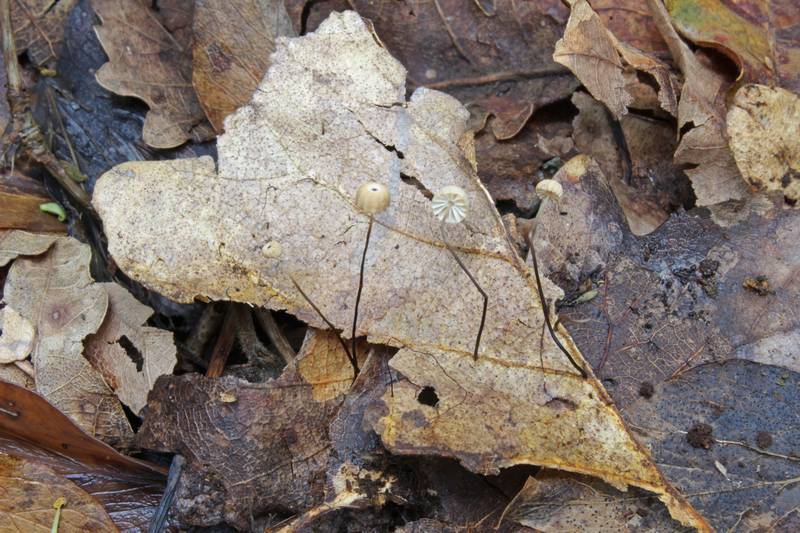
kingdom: Fungi
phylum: Basidiomycota
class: Agaricomycetes
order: Agaricales
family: Marasmiaceae
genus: Marasmius
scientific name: Marasmius bulliardii
